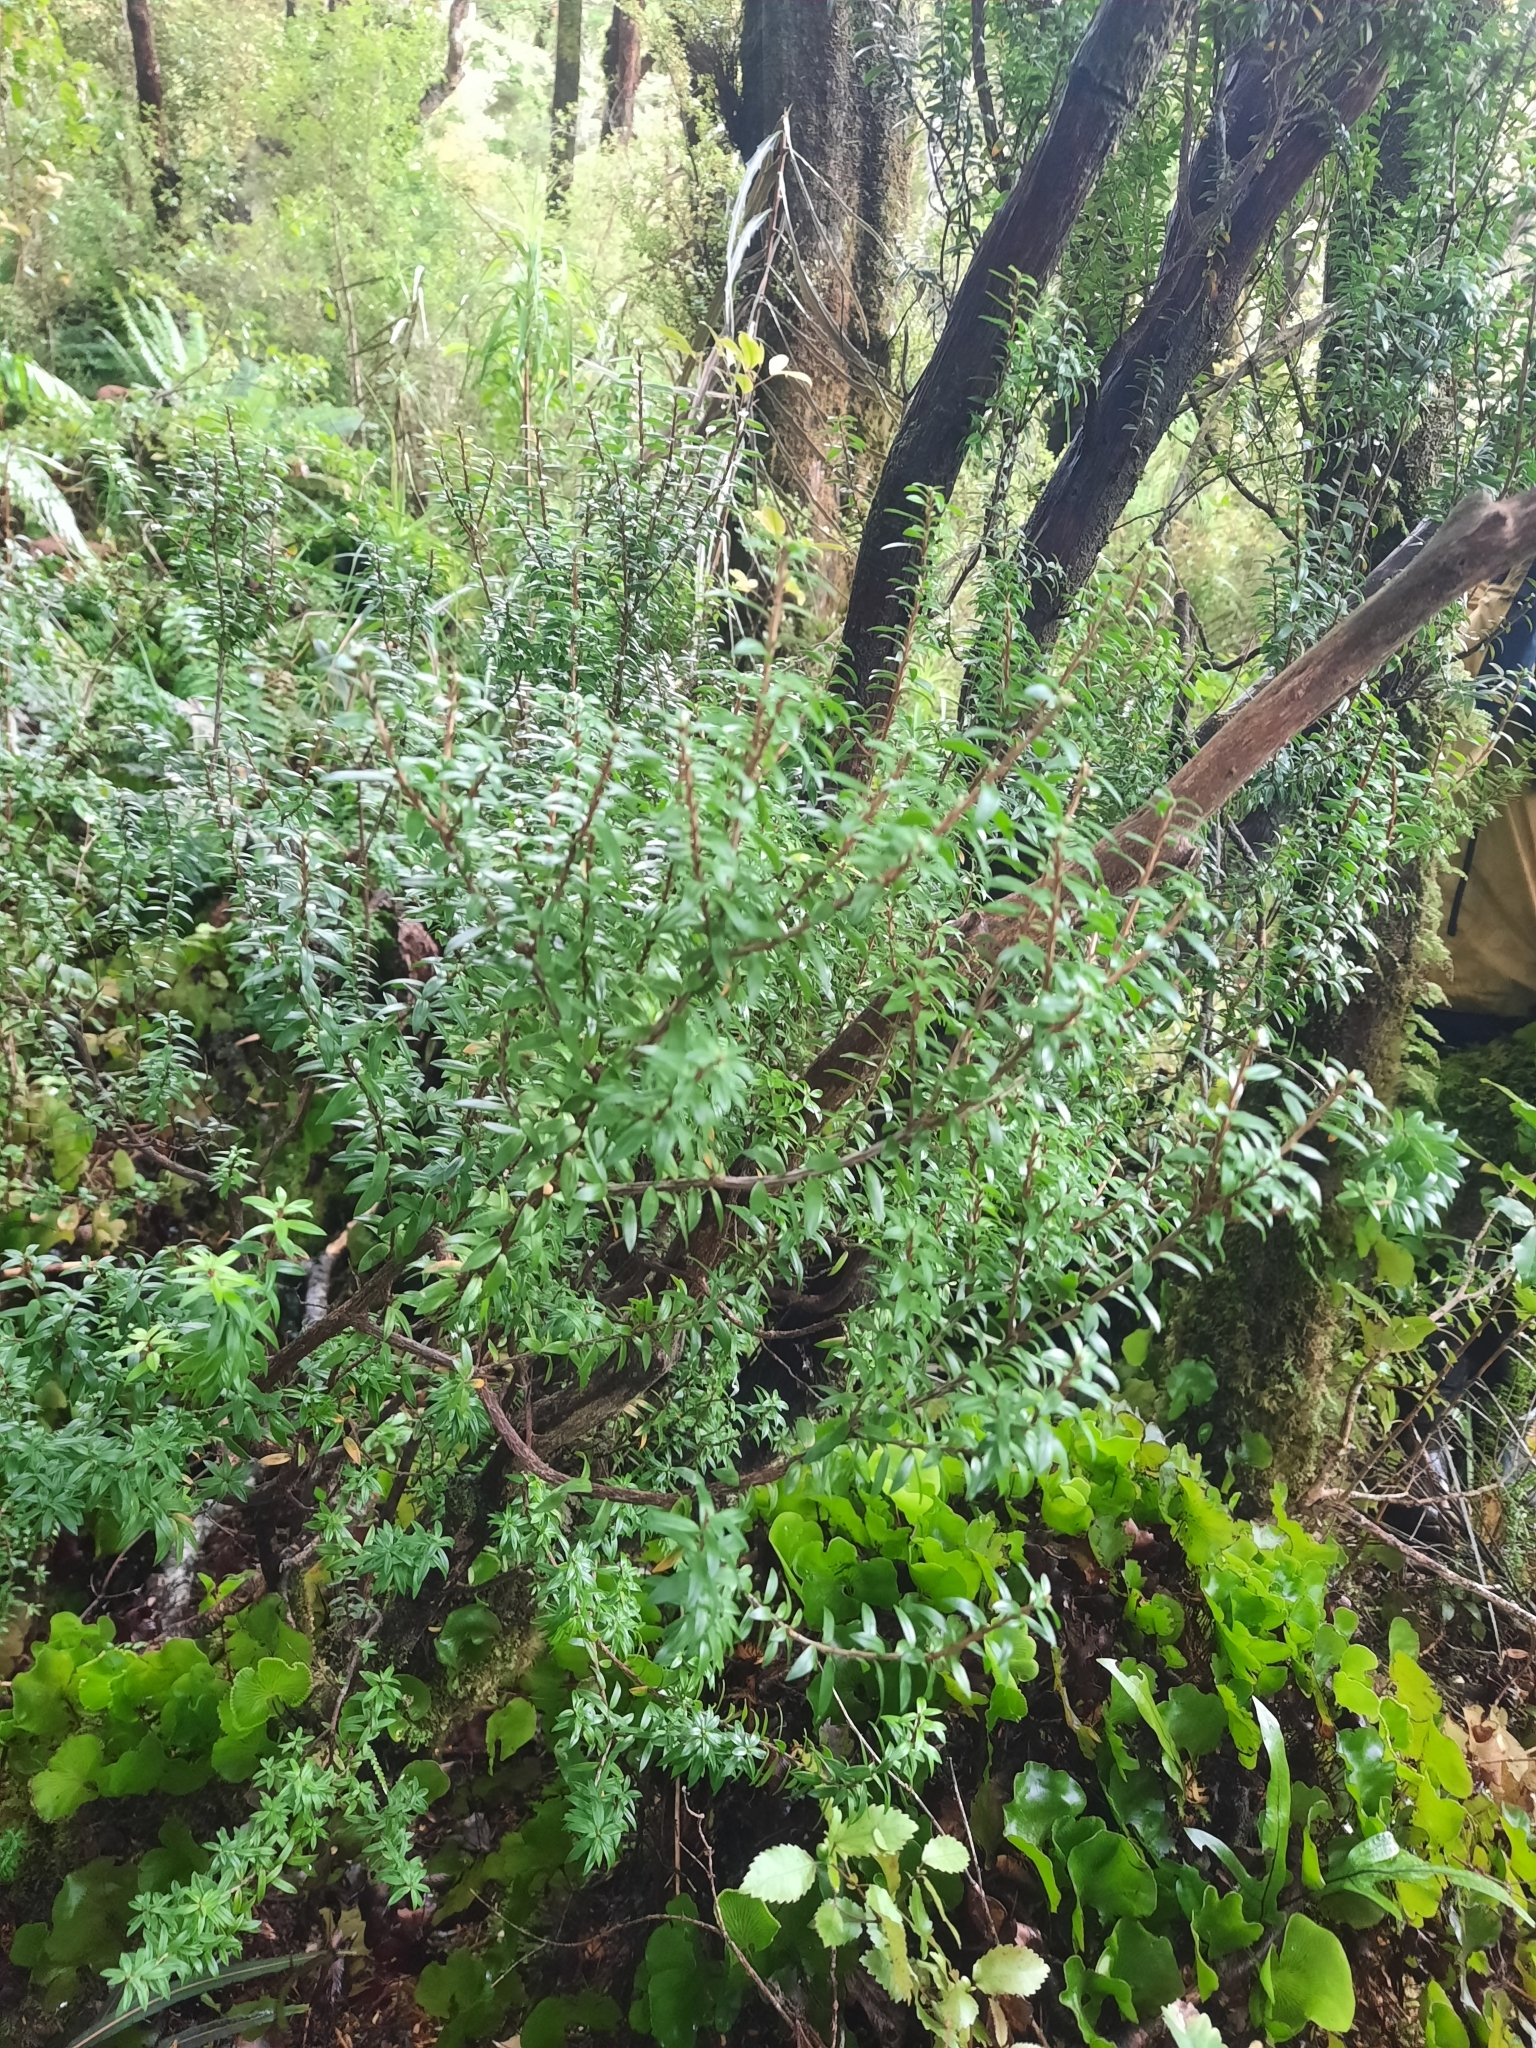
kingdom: Plantae
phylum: Tracheophyta
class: Magnoliopsida
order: Ericales
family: Ericaceae
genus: Archeria
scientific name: Archeria traversii
